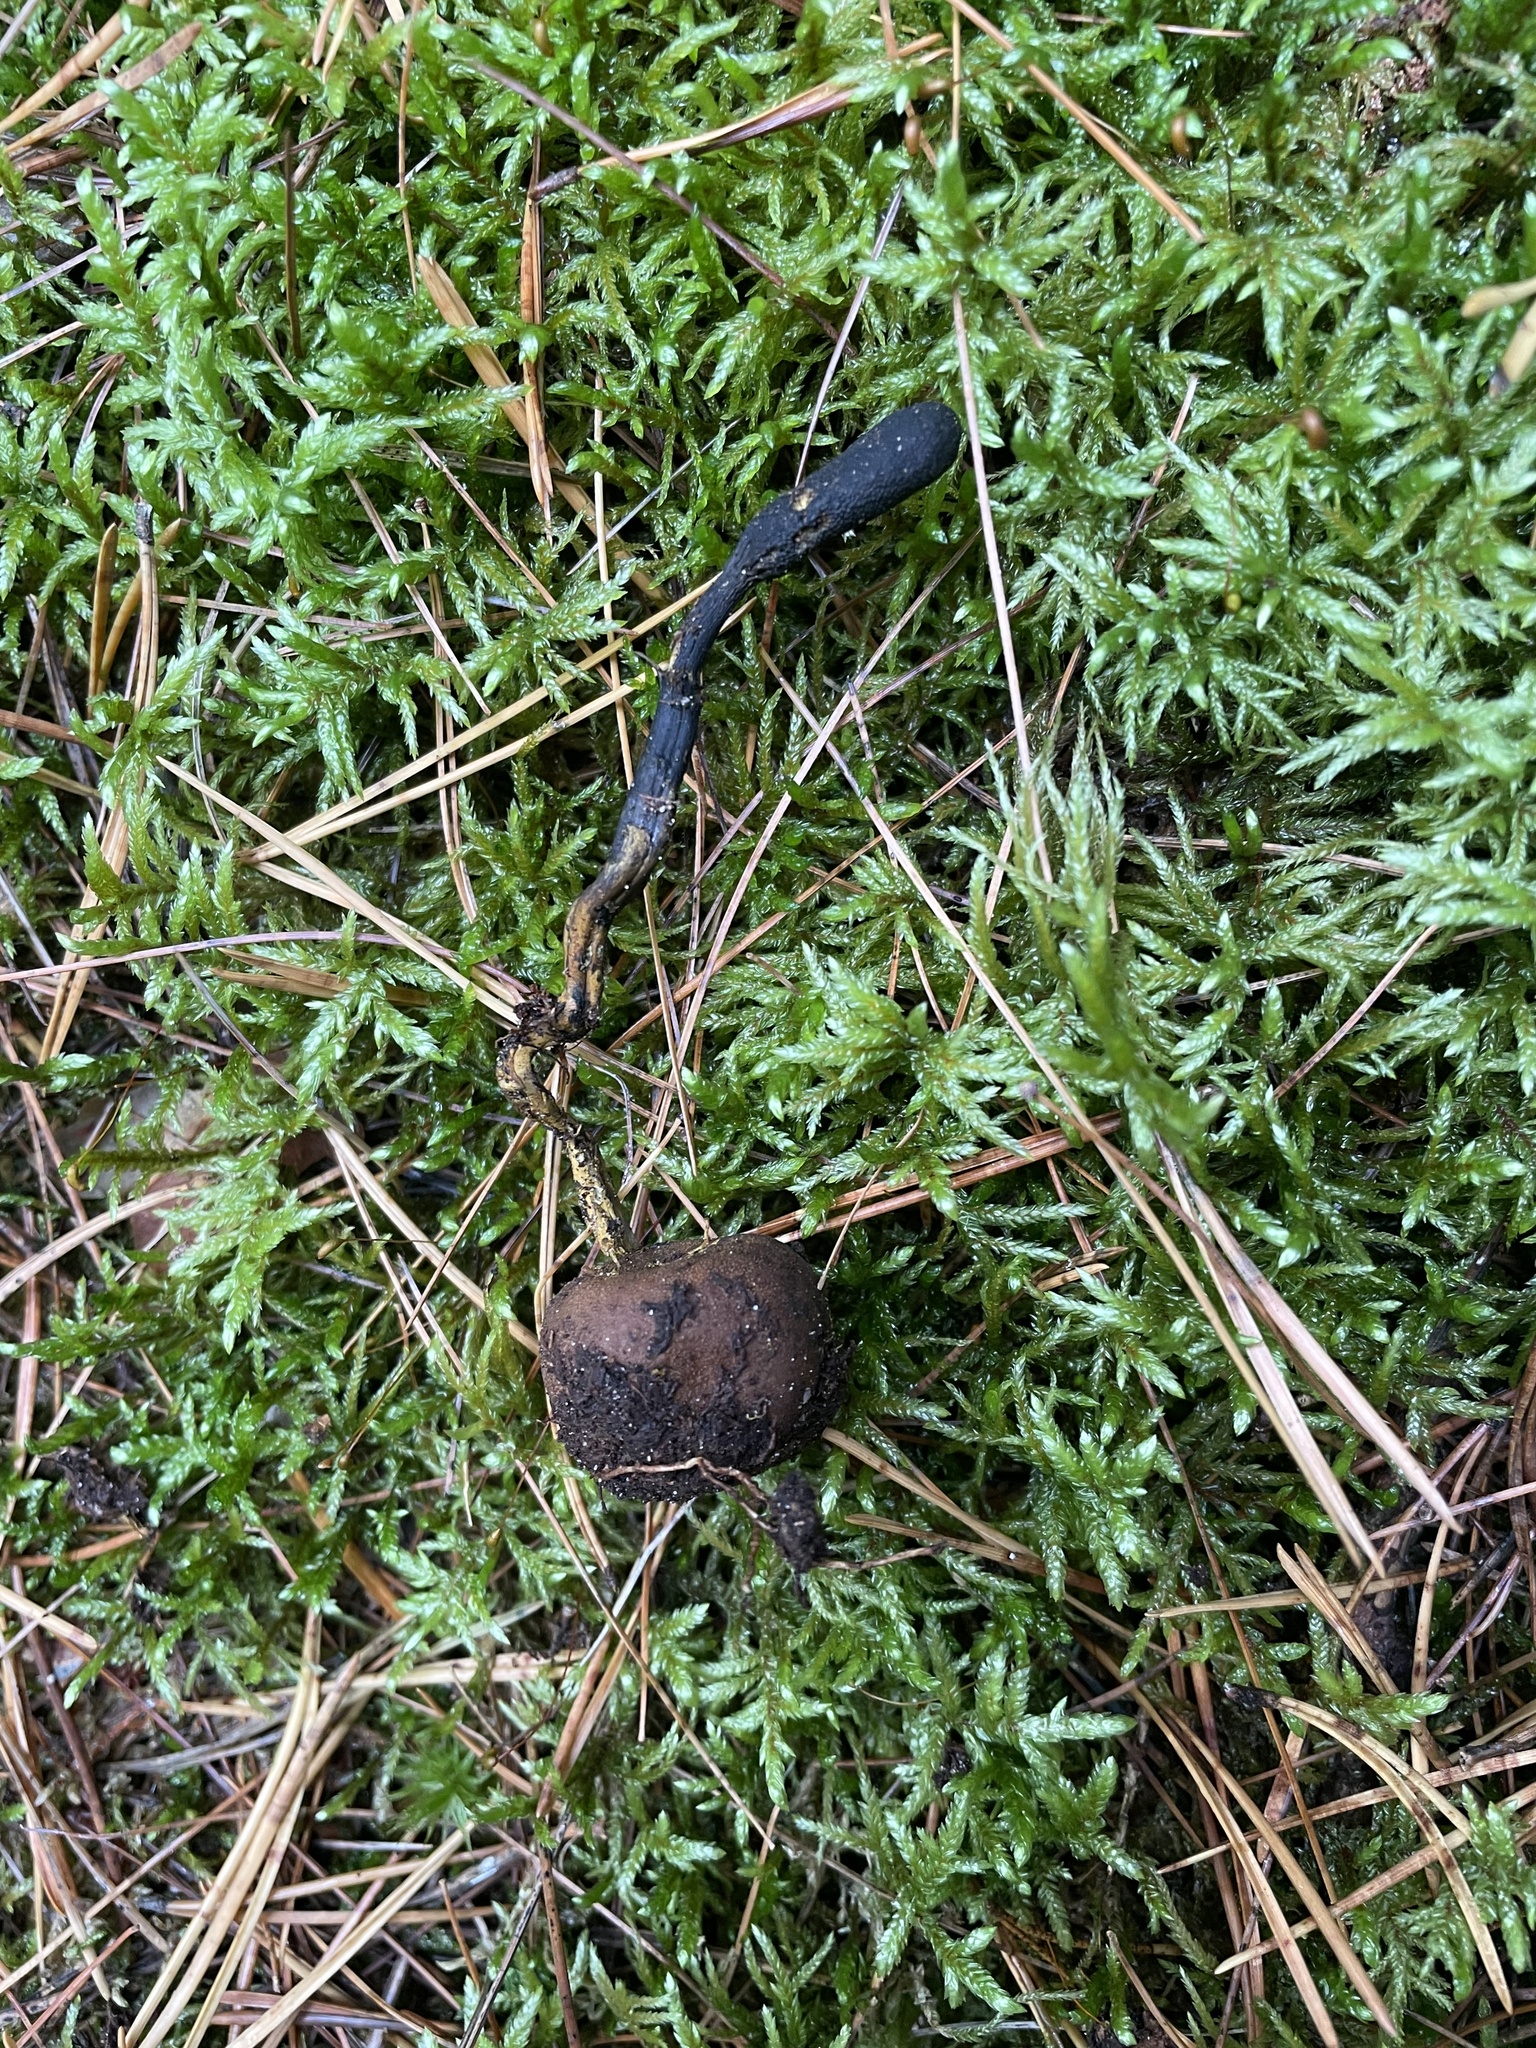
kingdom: Fungi
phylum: Ascomycota
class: Sordariomycetes
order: Hypocreales
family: Ophiocordycipitaceae
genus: Tolypocladium
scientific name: Tolypocladium ophioglossoides
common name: Snaketongue truffleclub
